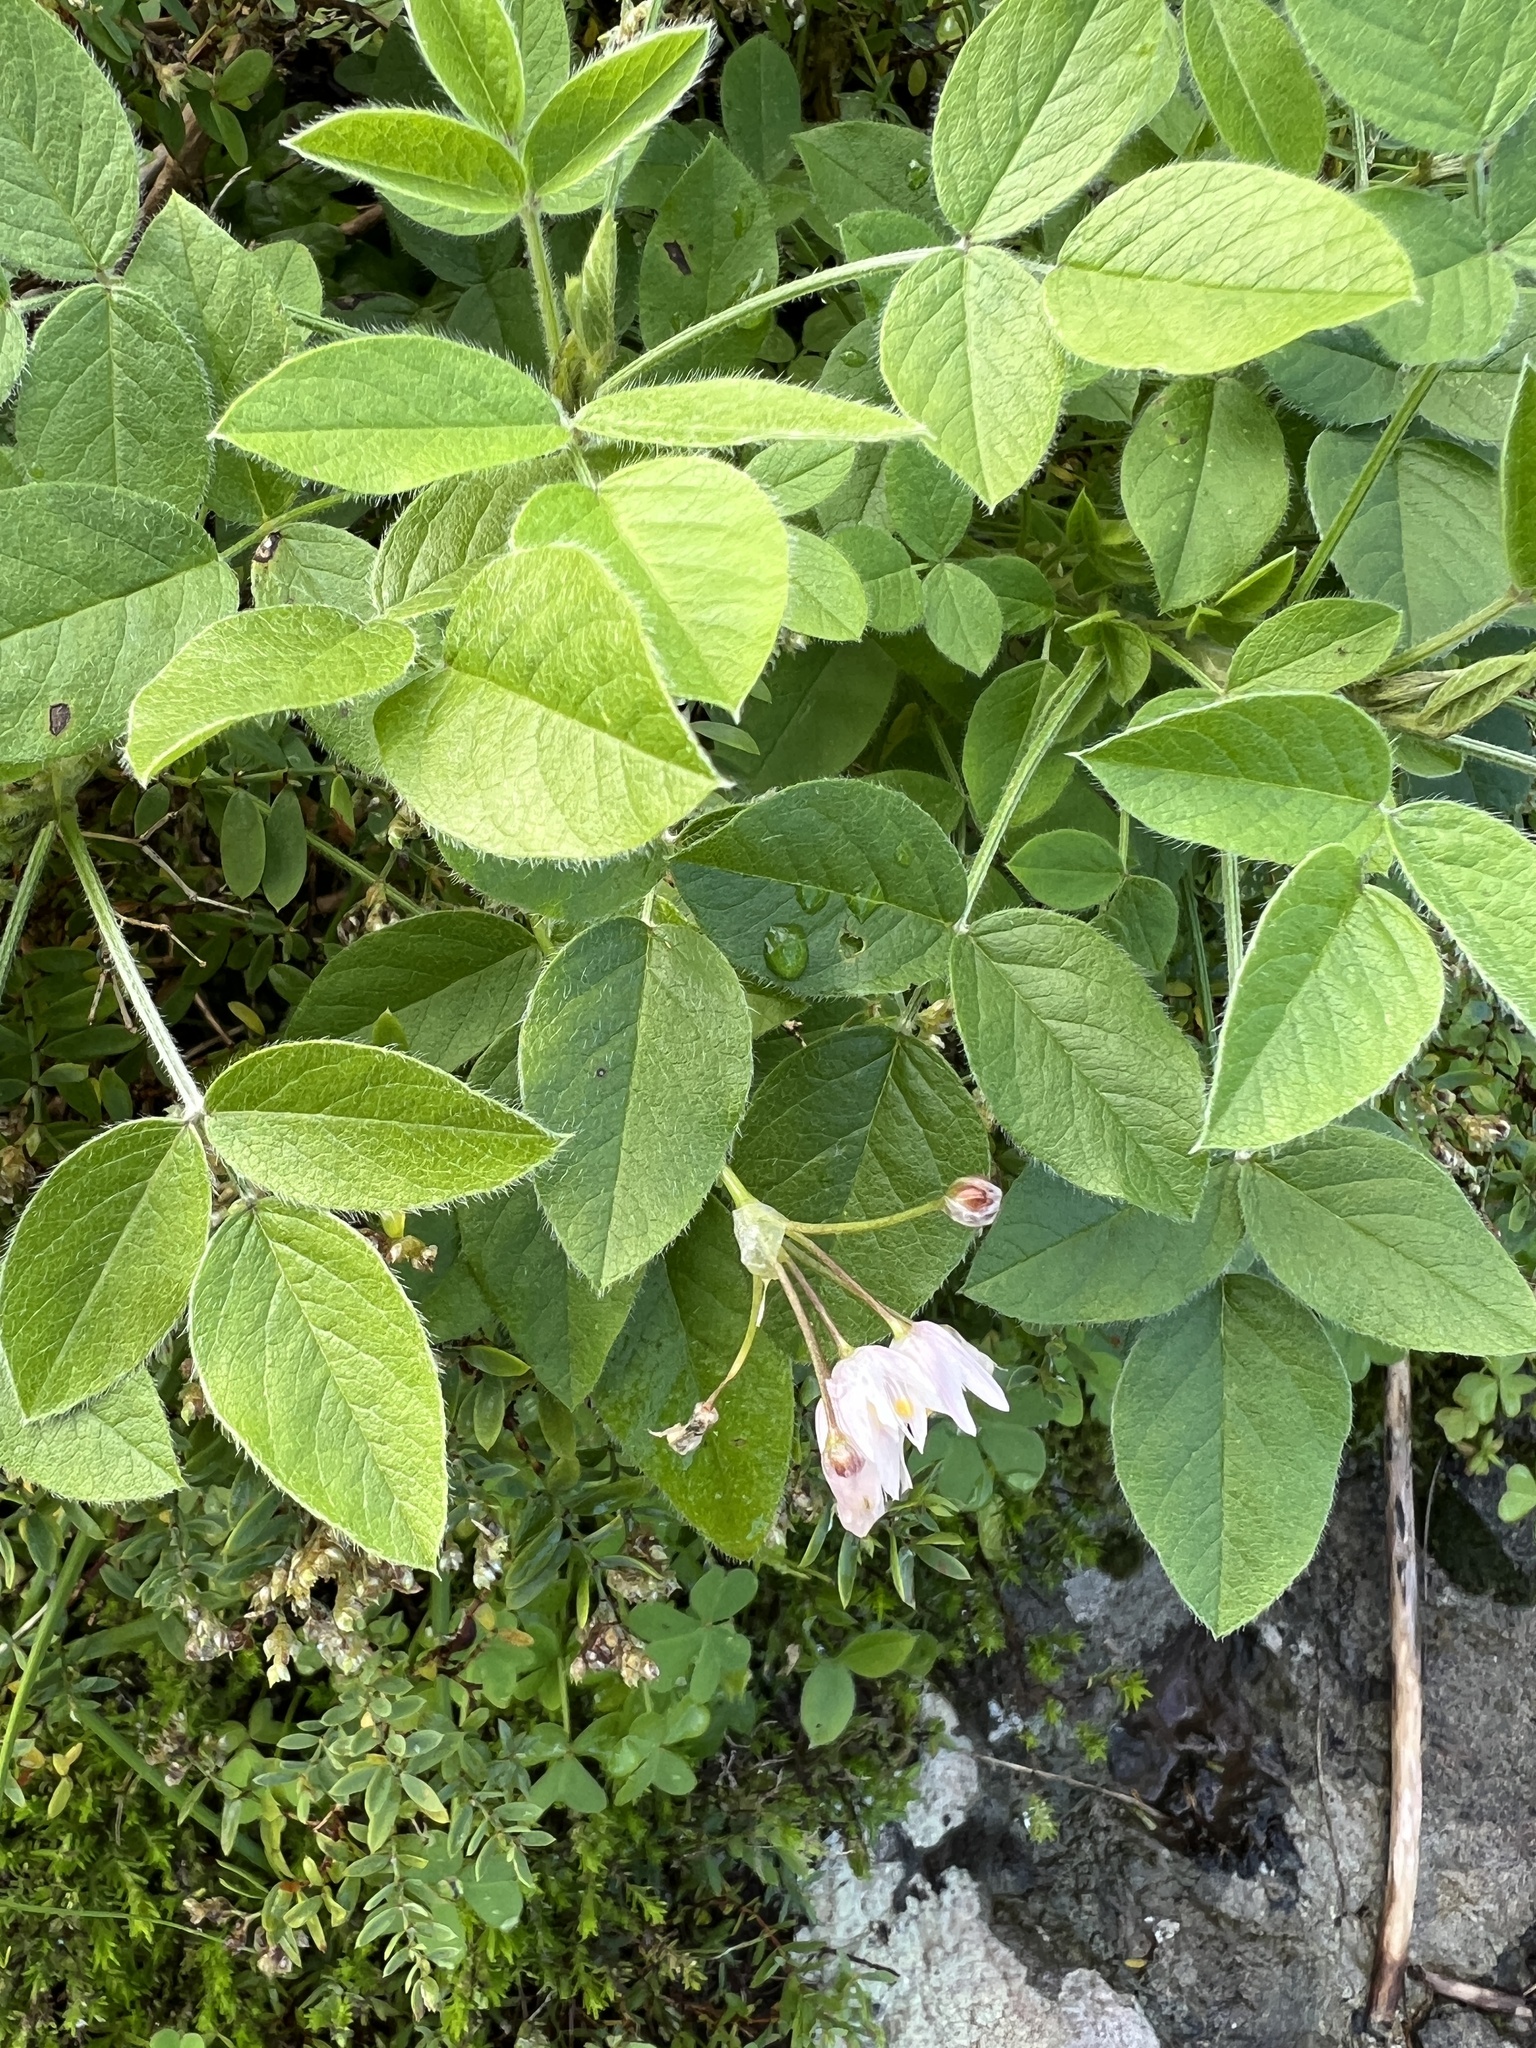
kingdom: Plantae
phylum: Tracheophyta
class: Magnoliopsida
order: Fabales
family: Fabaceae
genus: Bituminaria
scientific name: Bituminaria bituminosa
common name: Arabian pea
